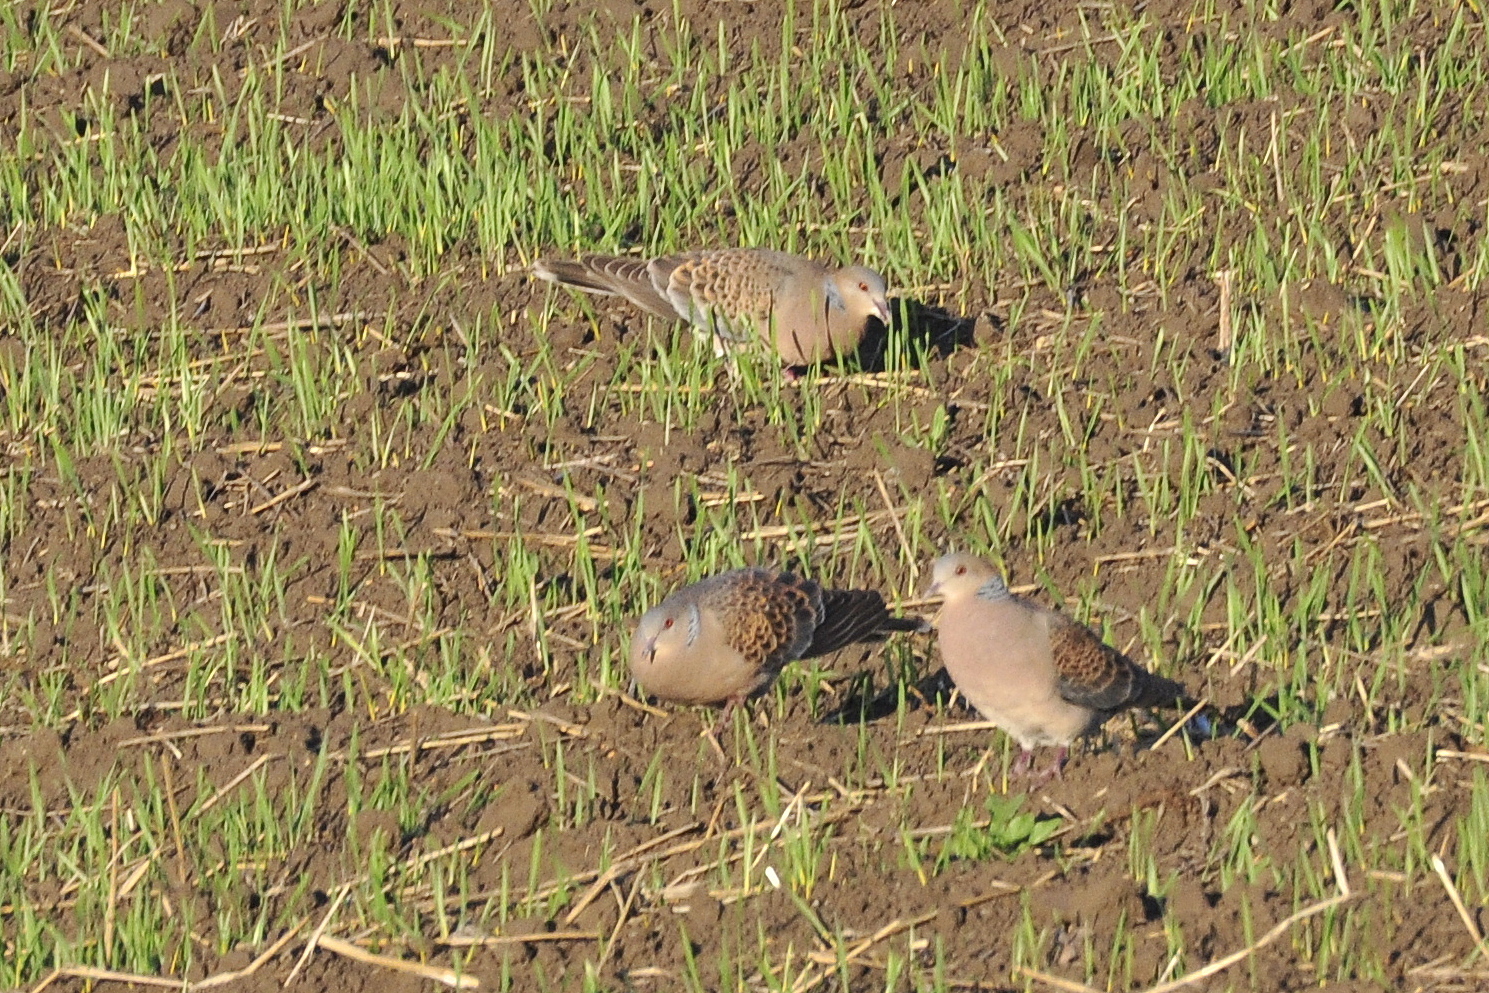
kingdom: Animalia
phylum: Chordata
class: Aves
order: Columbiformes
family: Columbidae
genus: Streptopelia
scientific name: Streptopelia orientalis
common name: Oriental turtle dove
